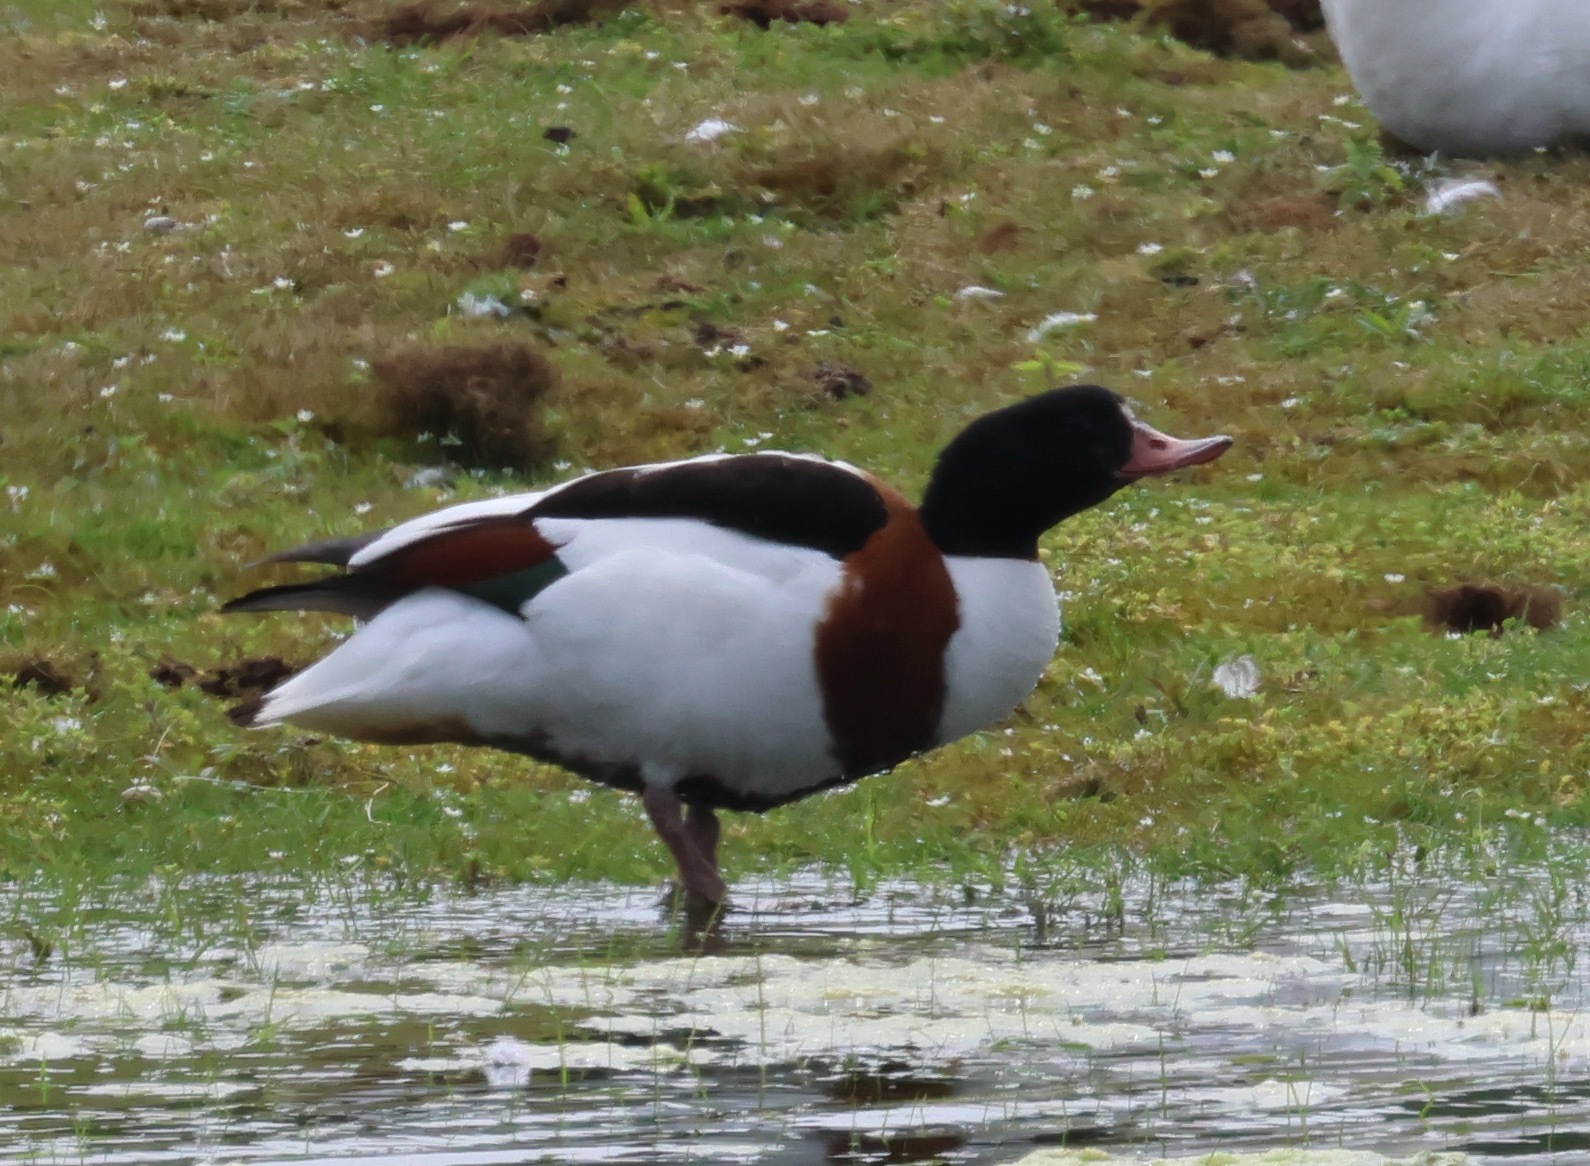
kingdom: Animalia
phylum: Chordata
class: Aves
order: Anseriformes
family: Anatidae
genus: Tadorna
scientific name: Tadorna tadorna
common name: Common shelduck
